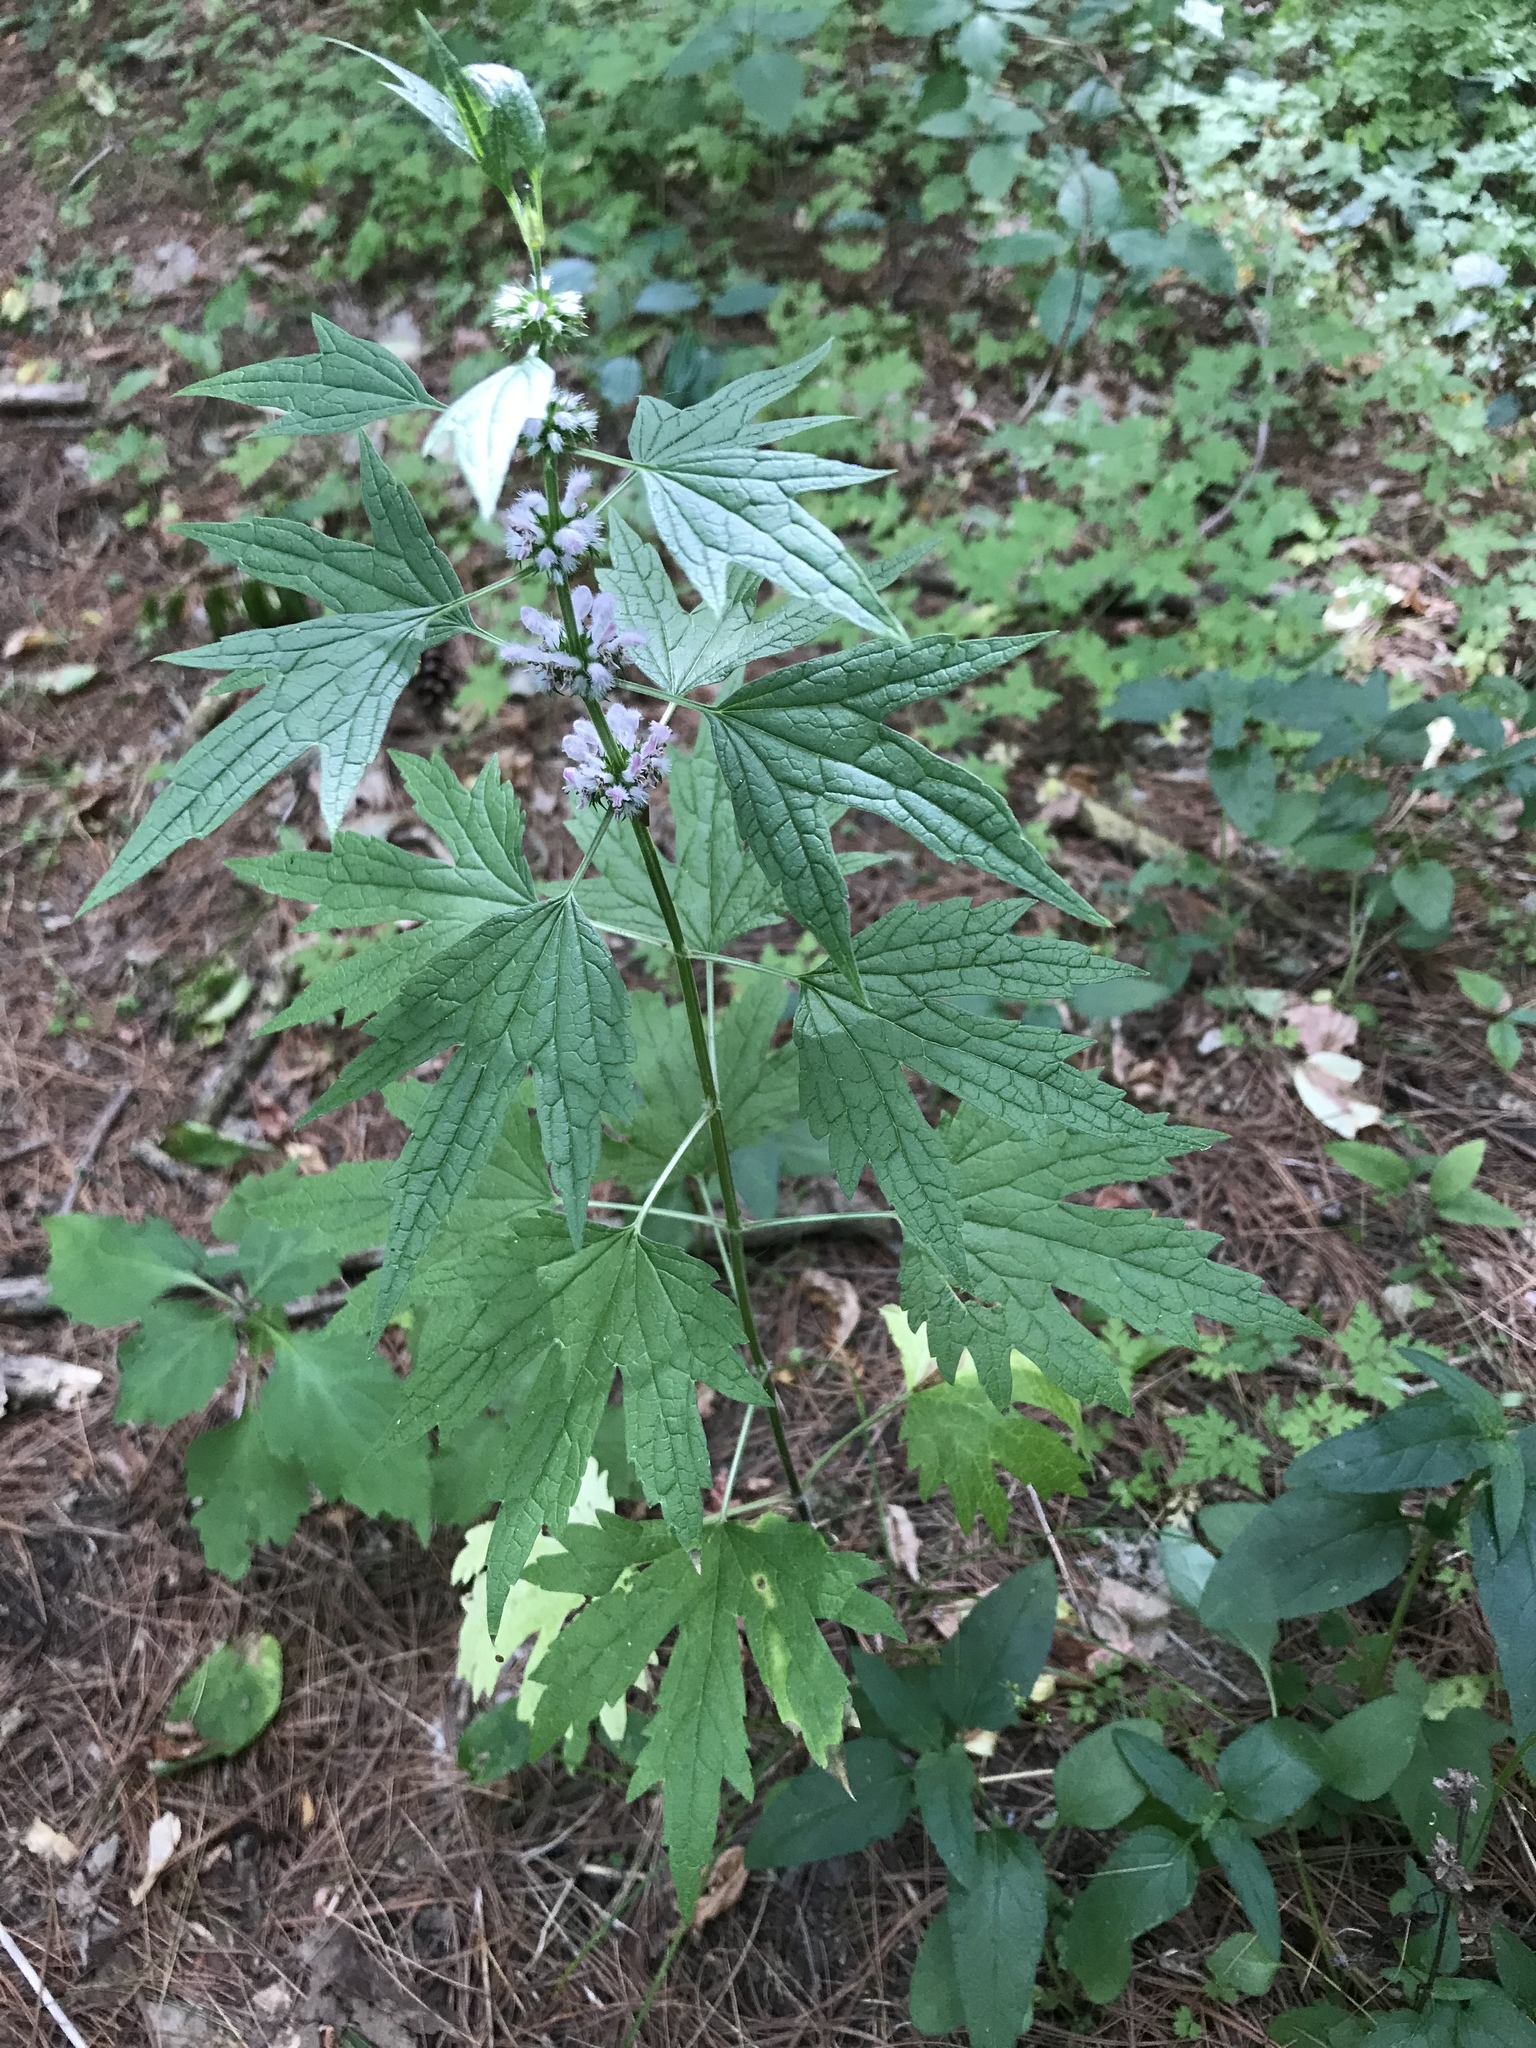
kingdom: Plantae
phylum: Tracheophyta
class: Magnoliopsida
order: Lamiales
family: Lamiaceae
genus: Leonurus
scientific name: Leonurus cardiaca
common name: Motherwort
